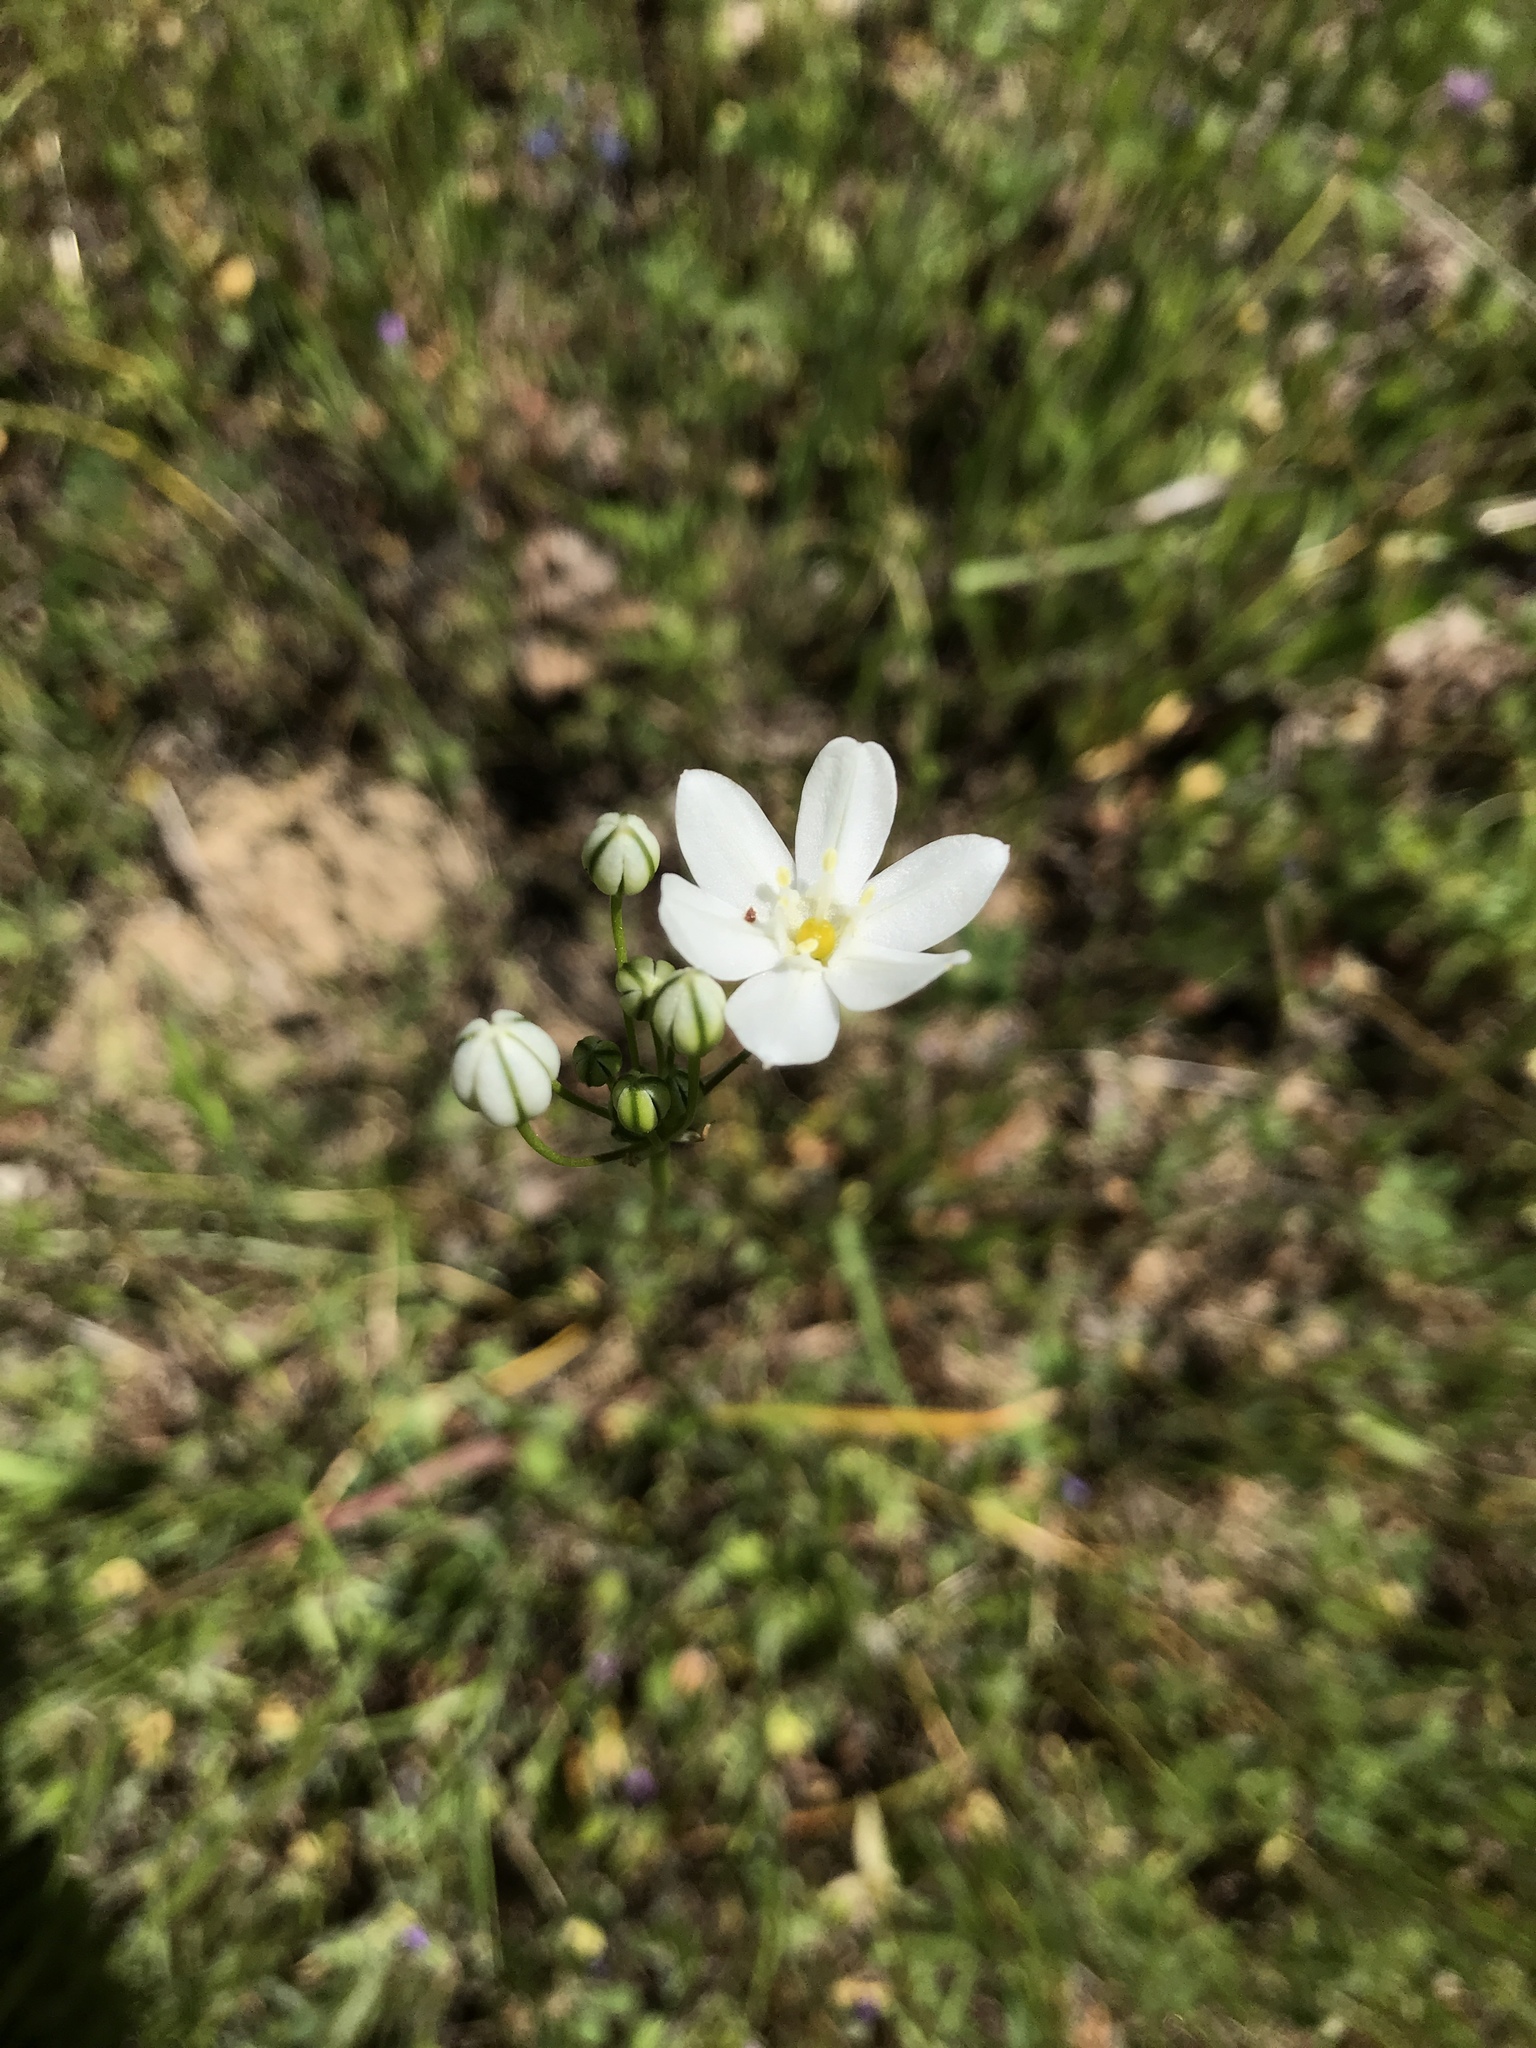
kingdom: Plantae
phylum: Tracheophyta
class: Liliopsida
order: Asparagales
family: Asparagaceae
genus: Triteleia
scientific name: Triteleia hyacinthina
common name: White brodiaea
